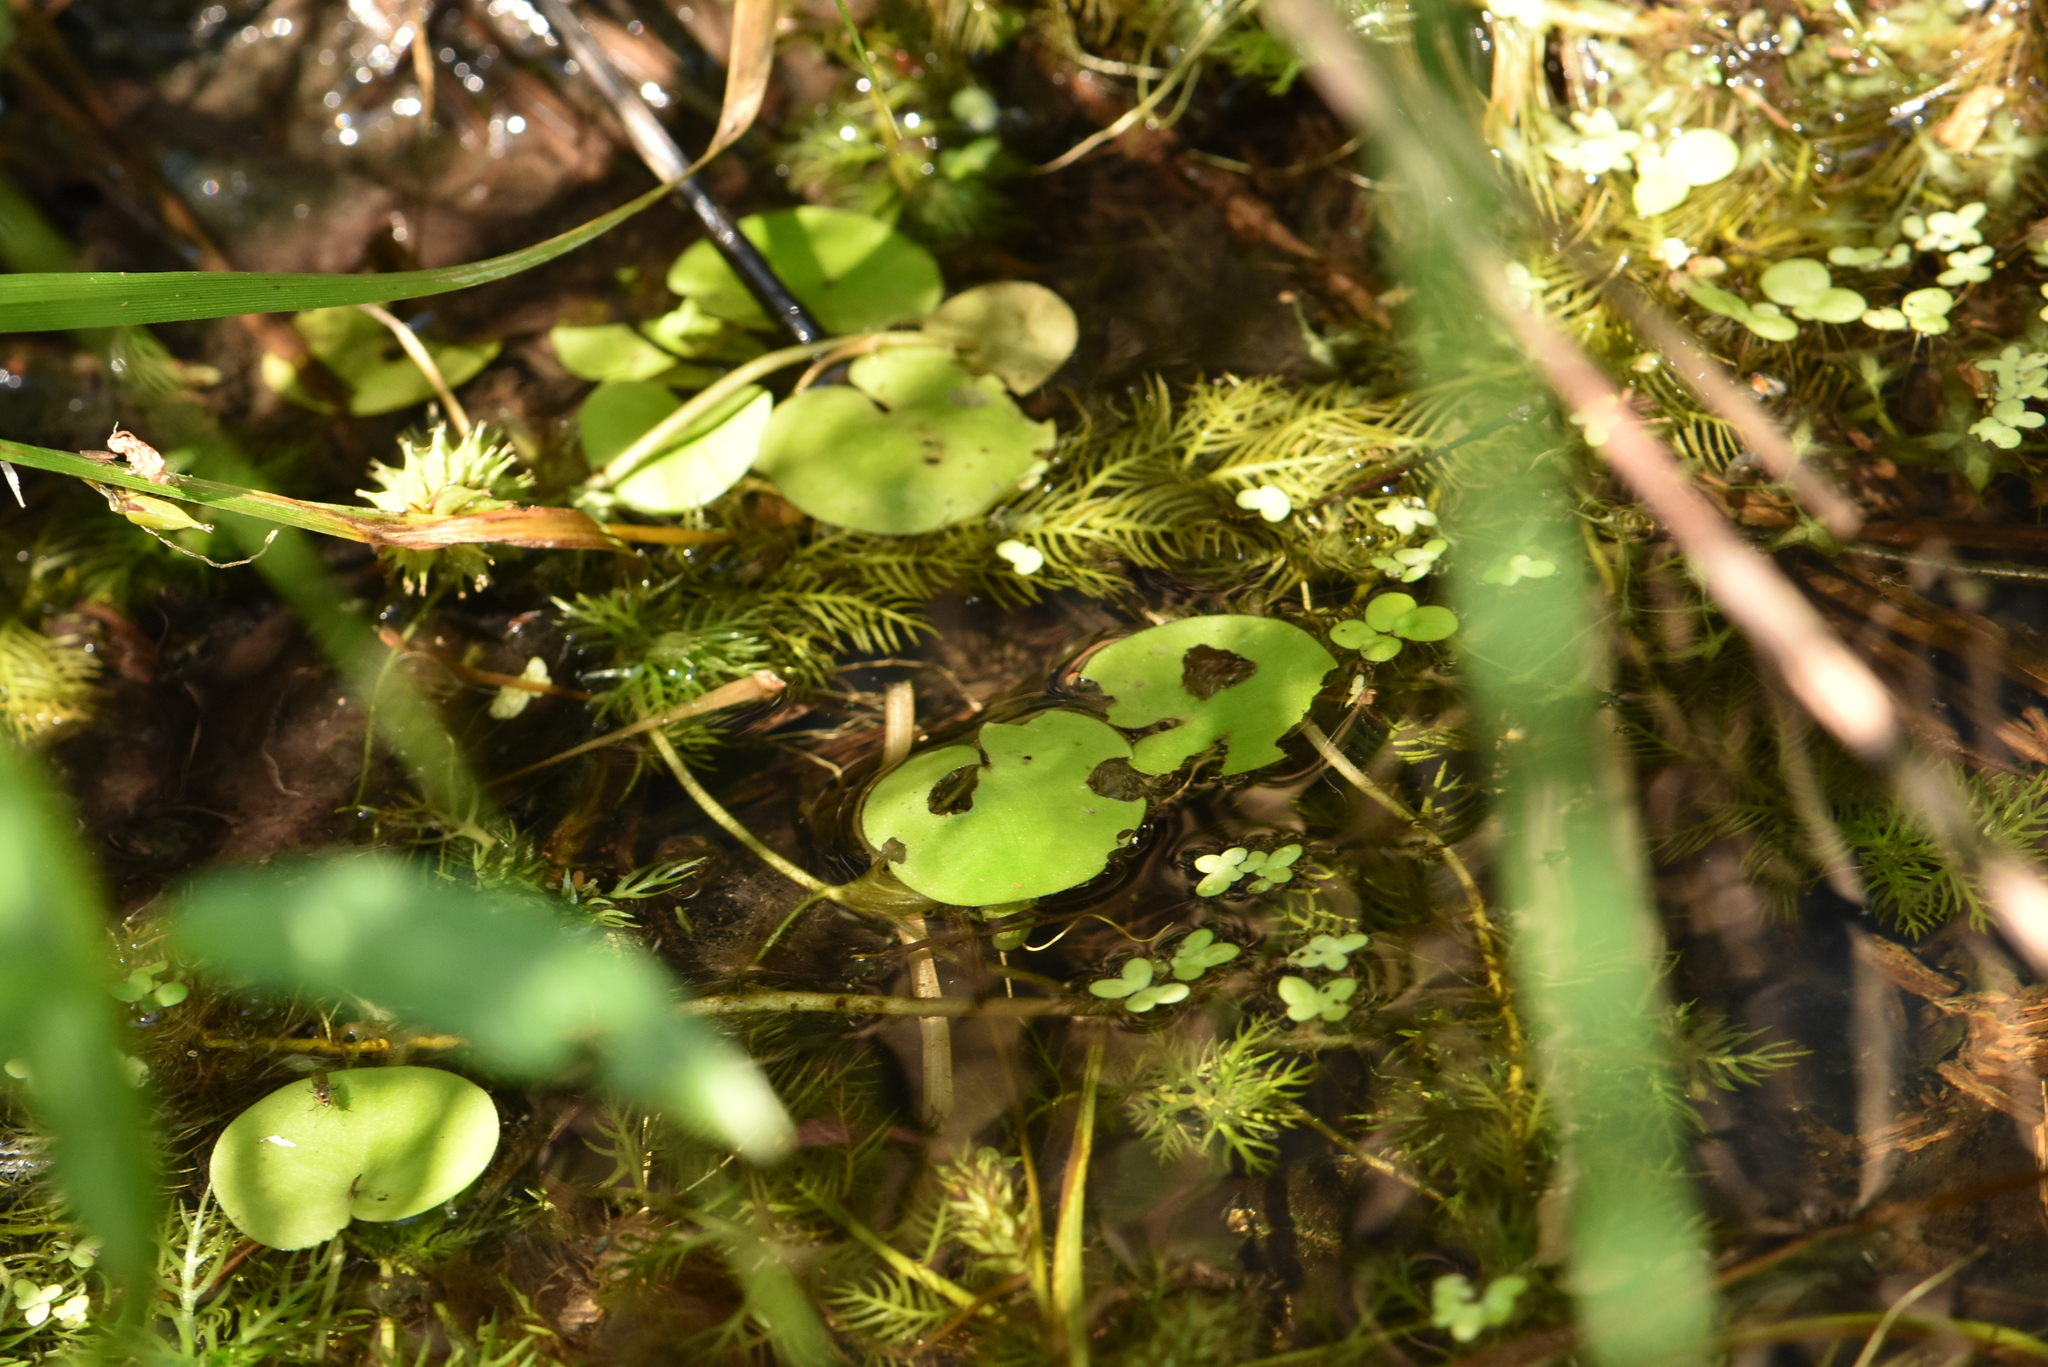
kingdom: Plantae
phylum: Tracheophyta
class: Liliopsida
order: Alismatales
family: Hydrocharitaceae
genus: Hydrocharis
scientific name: Hydrocharis morsus-ranae
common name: Frogbit
